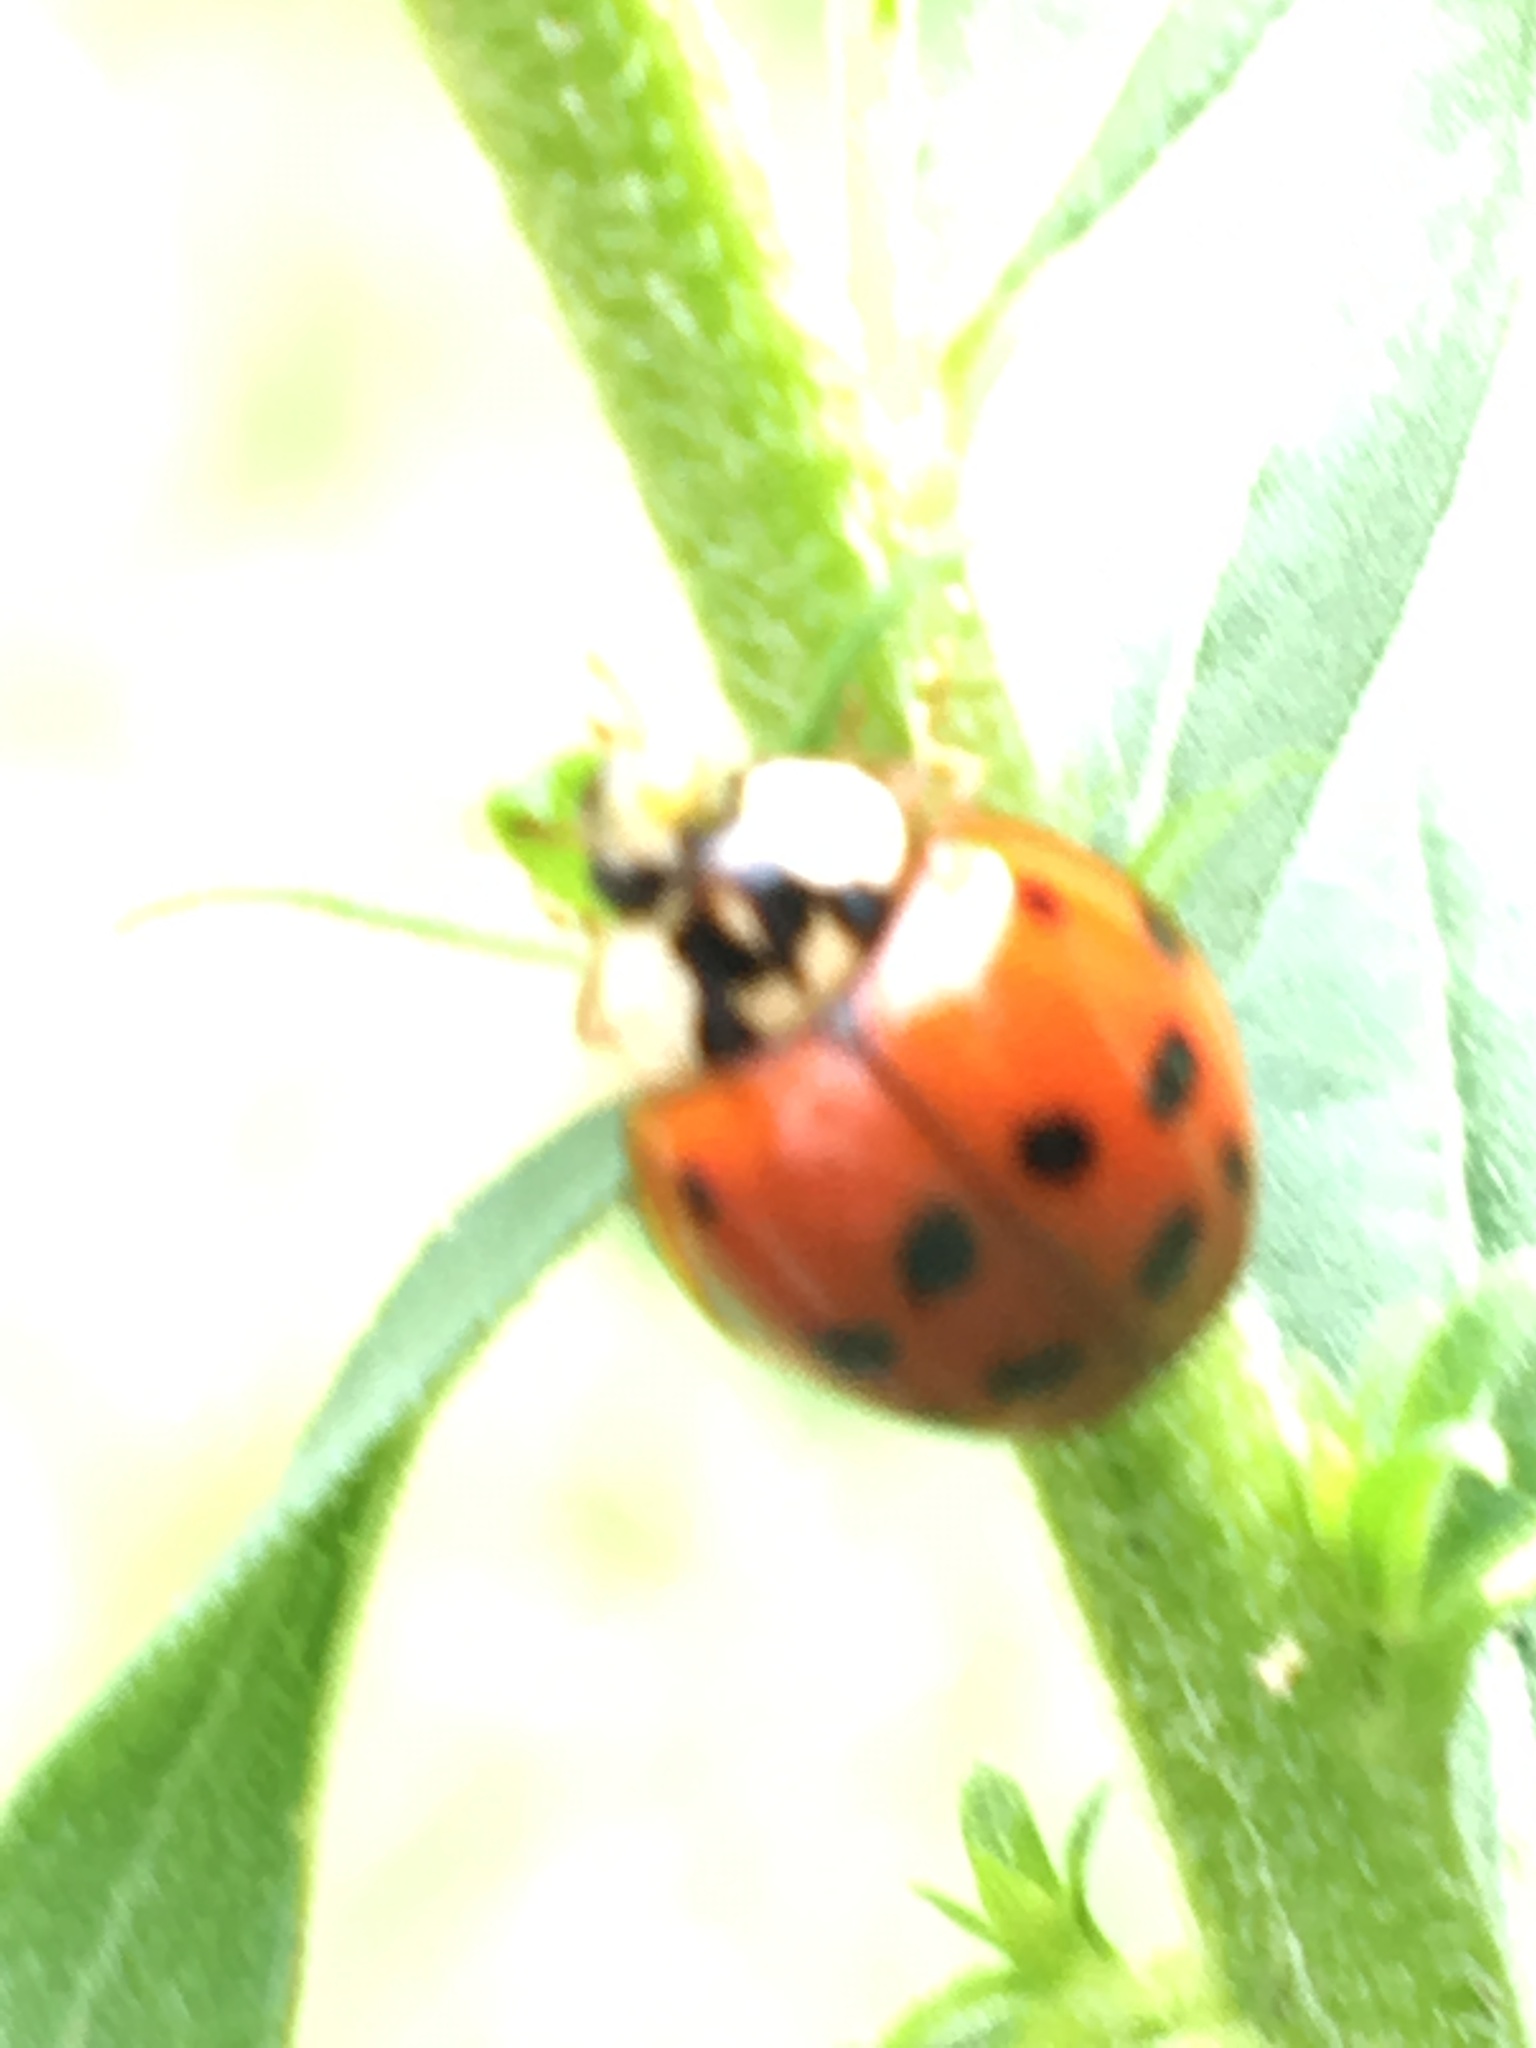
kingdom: Animalia
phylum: Arthropoda
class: Insecta
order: Coleoptera
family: Coccinellidae
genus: Harmonia
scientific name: Harmonia axyridis
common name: Harlequin ladybird
